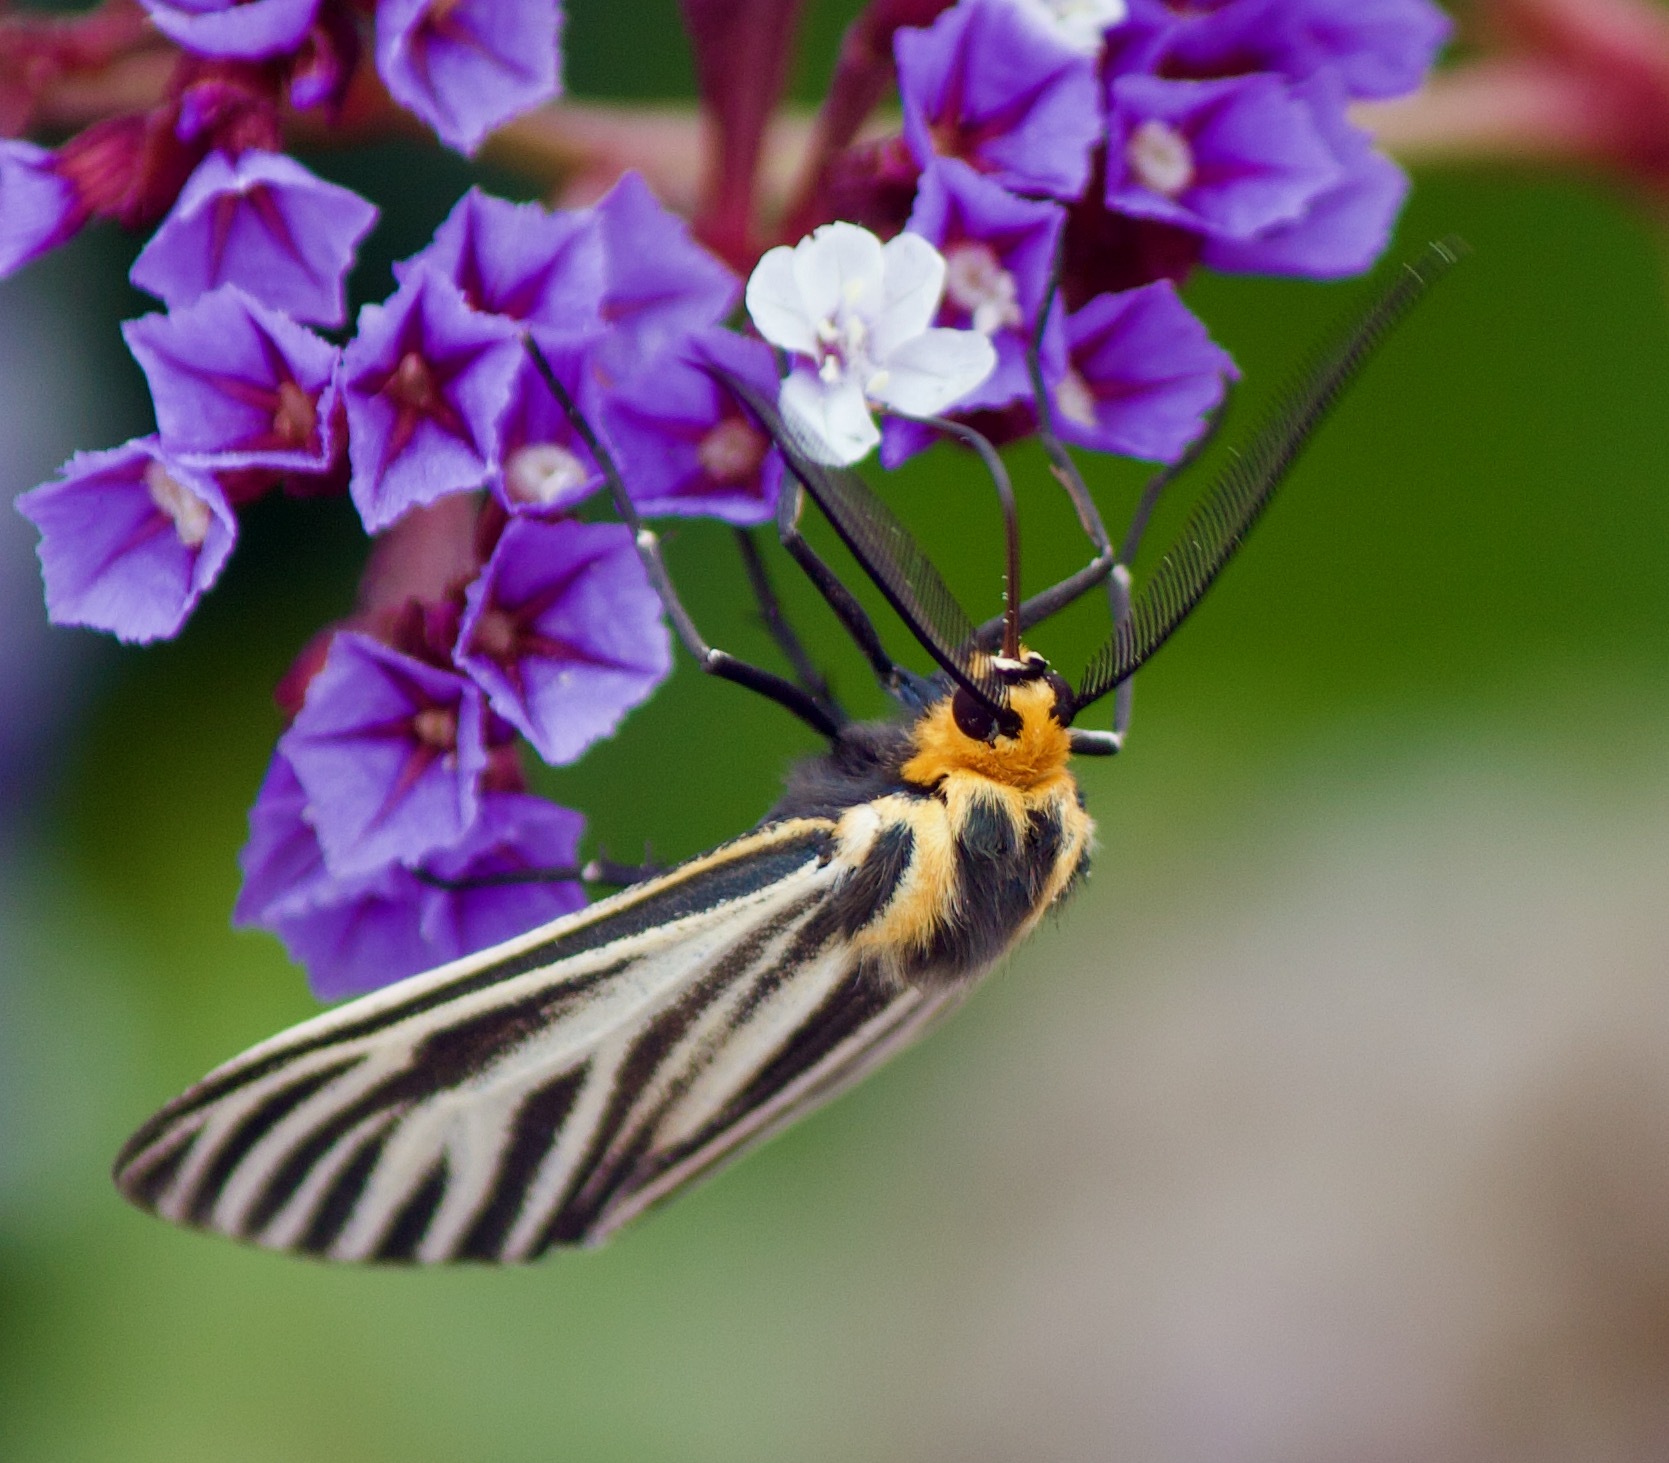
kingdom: Animalia
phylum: Arthropoda
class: Insecta
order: Lepidoptera
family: Erebidae
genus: Ctenucha
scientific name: Ctenucha vittigerum
